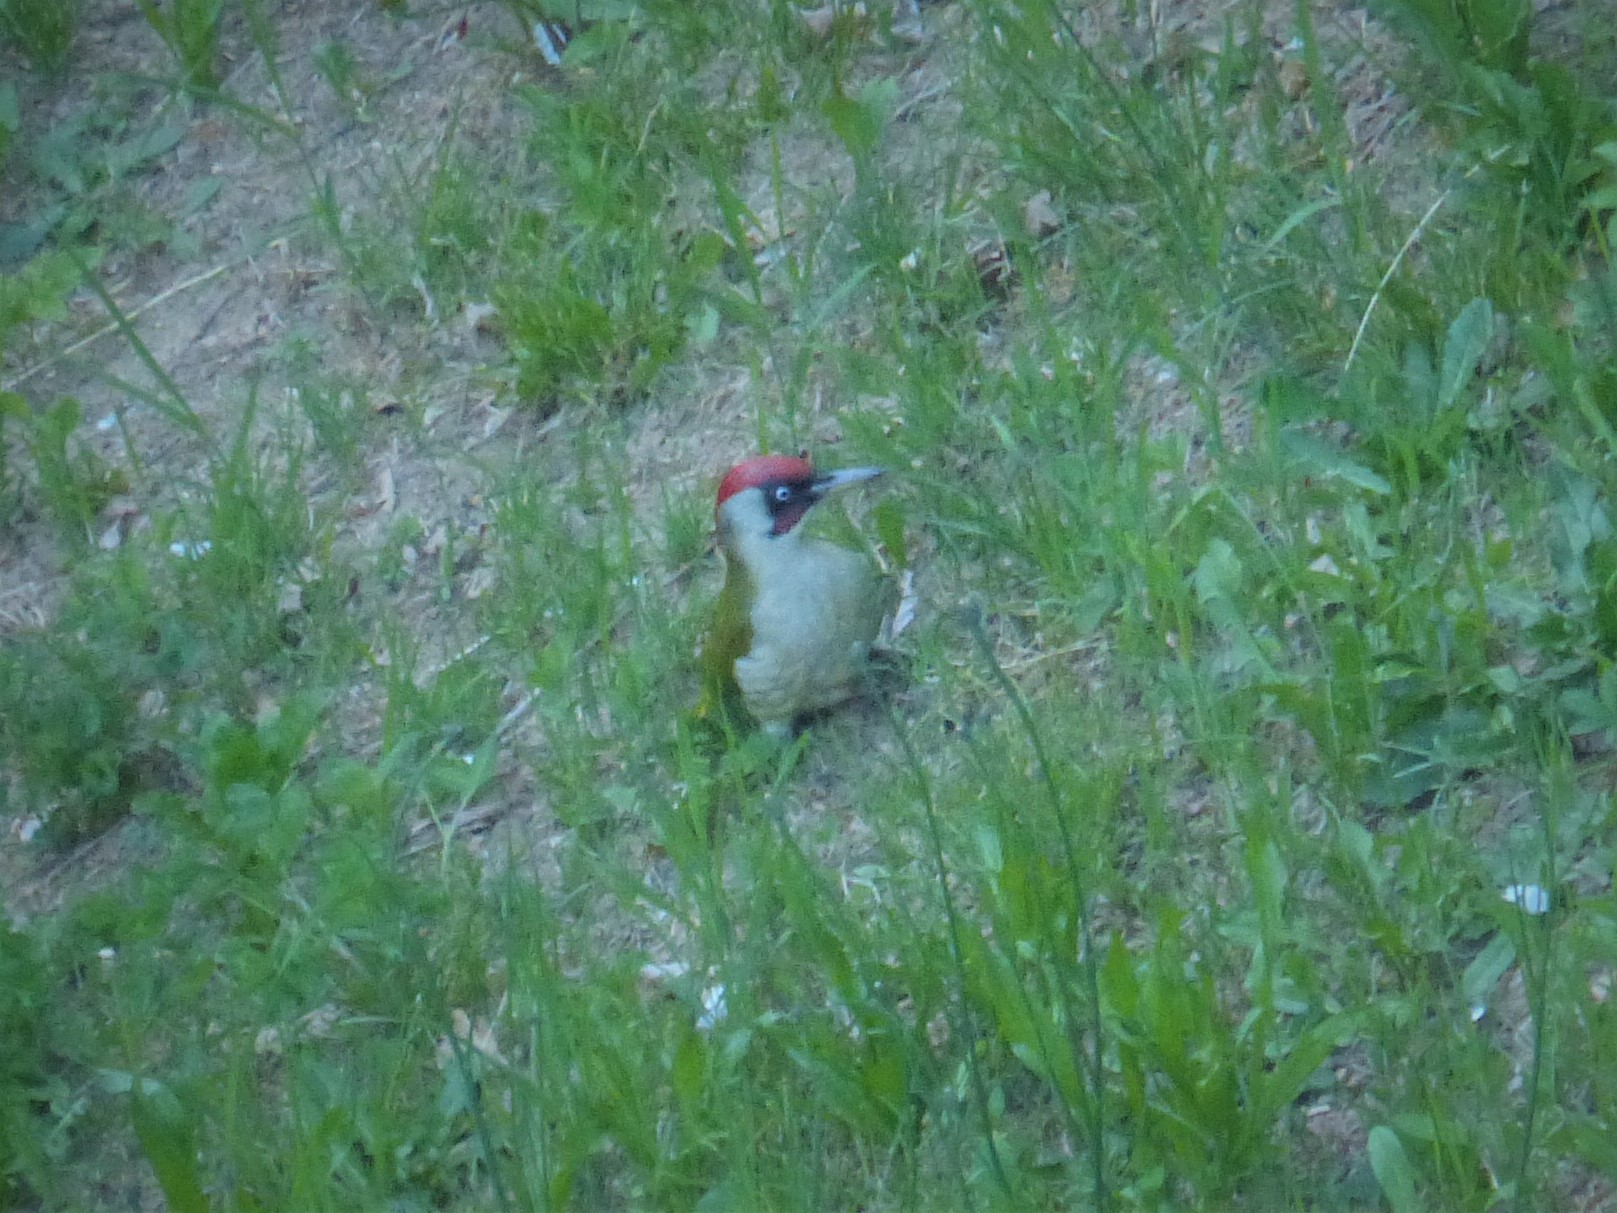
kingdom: Animalia
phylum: Chordata
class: Aves
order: Piciformes
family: Picidae
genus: Picus
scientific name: Picus viridis
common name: European green woodpecker
